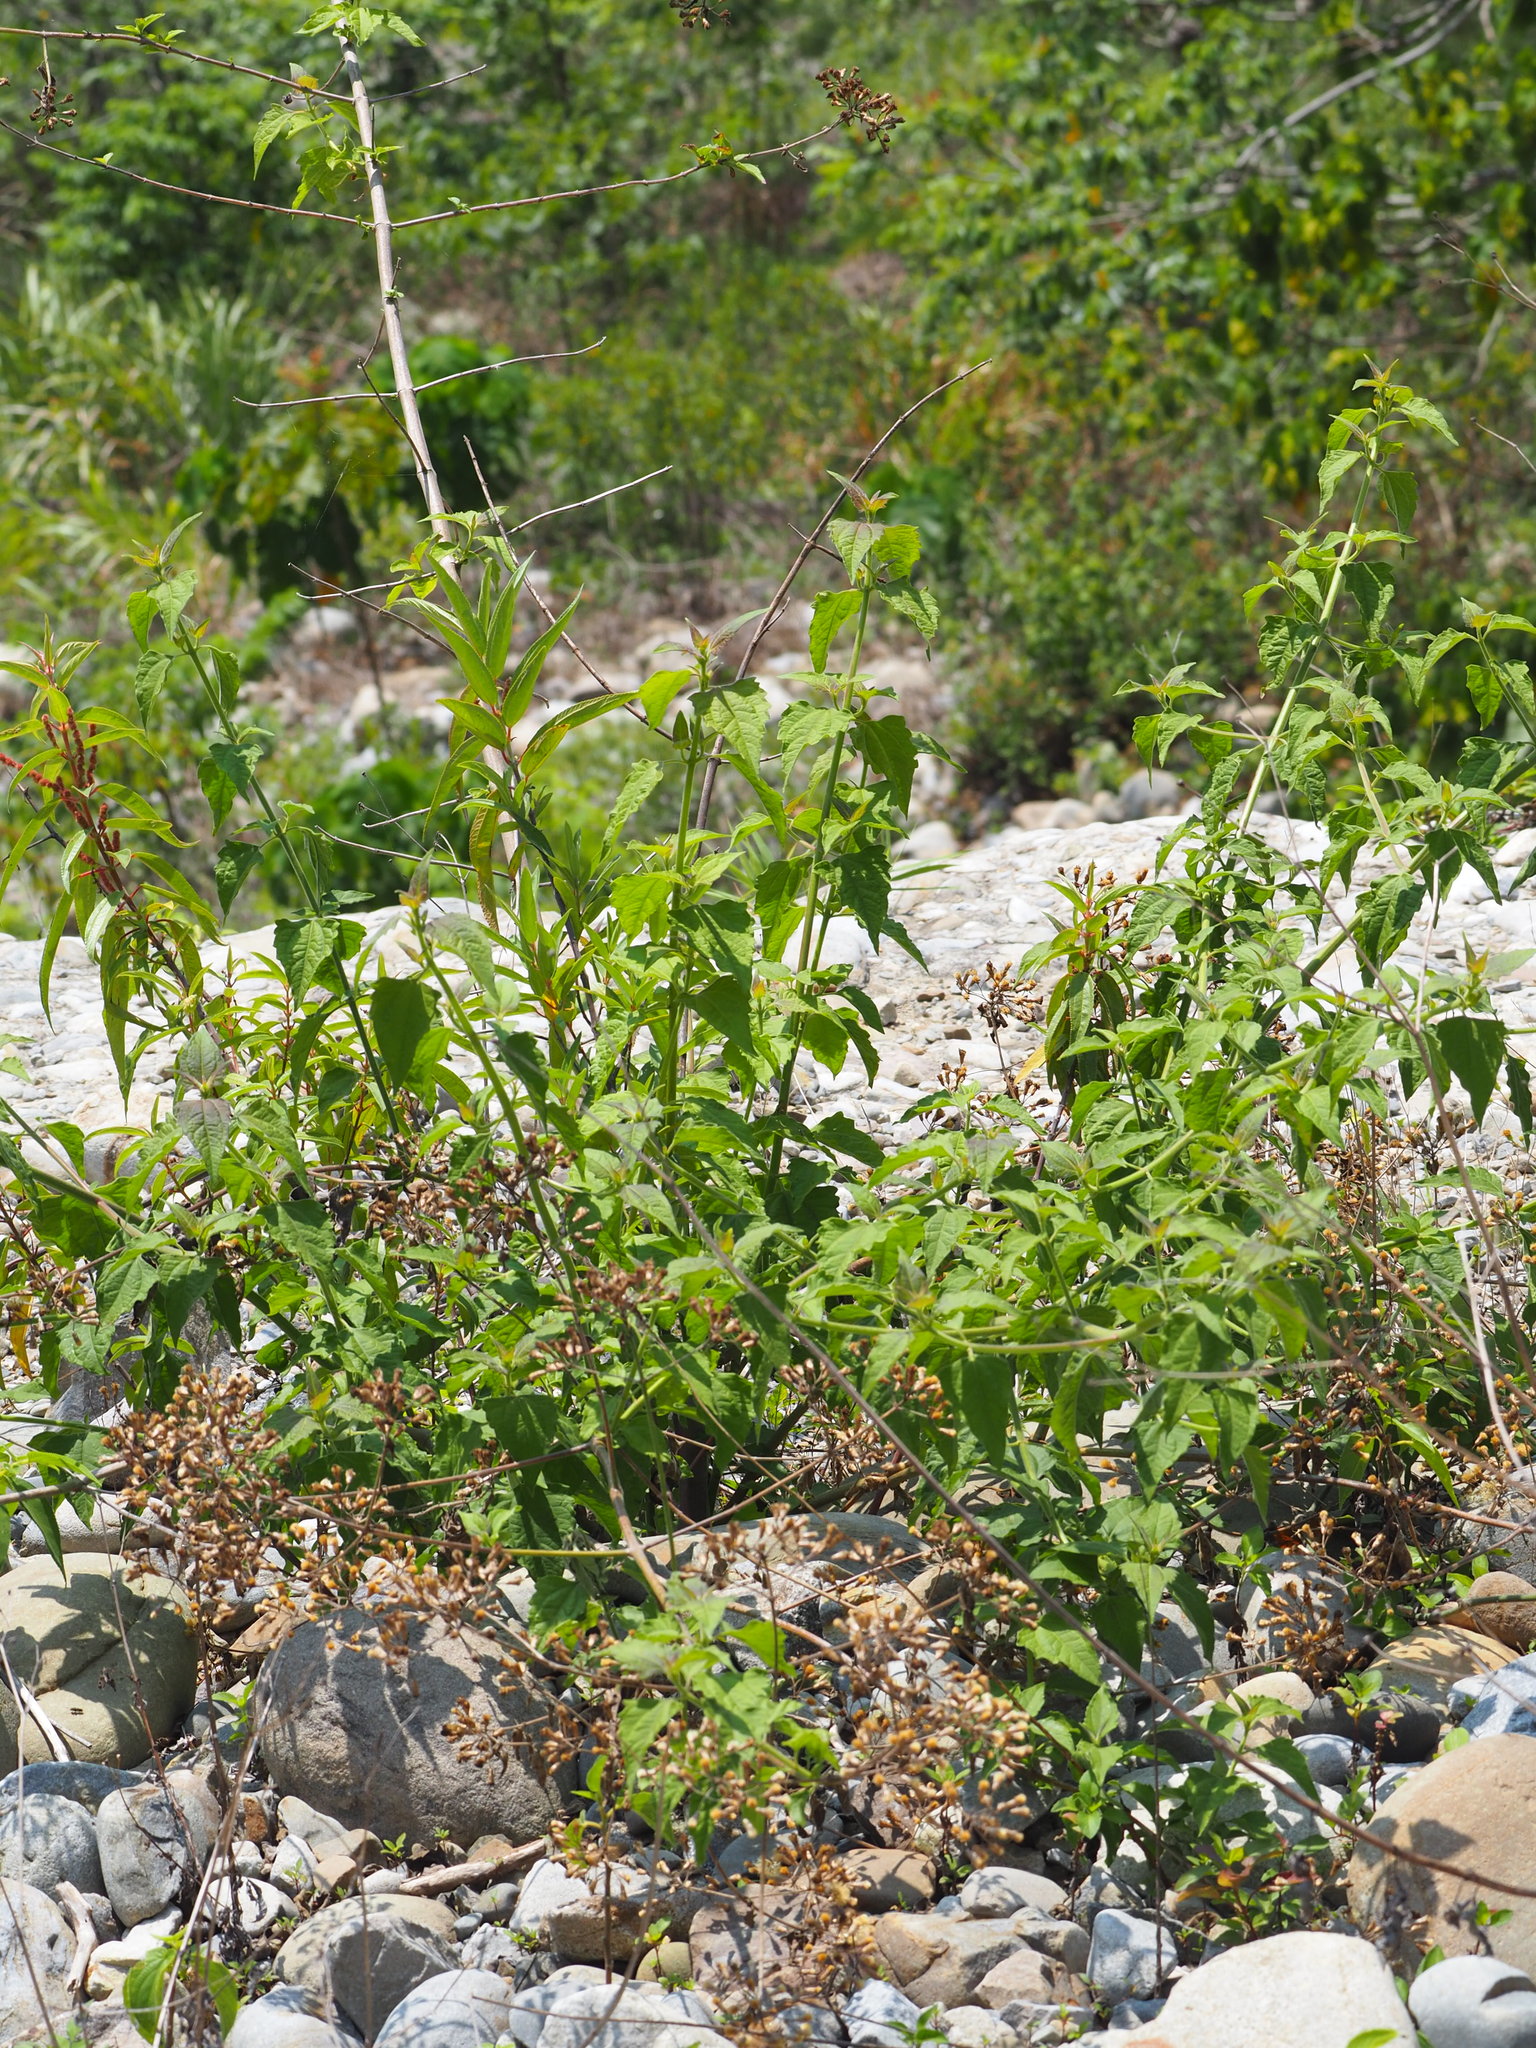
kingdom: Plantae
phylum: Tracheophyta
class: Magnoliopsida
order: Asterales
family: Asteraceae
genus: Chromolaena
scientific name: Chromolaena odorata
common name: Siamweed
